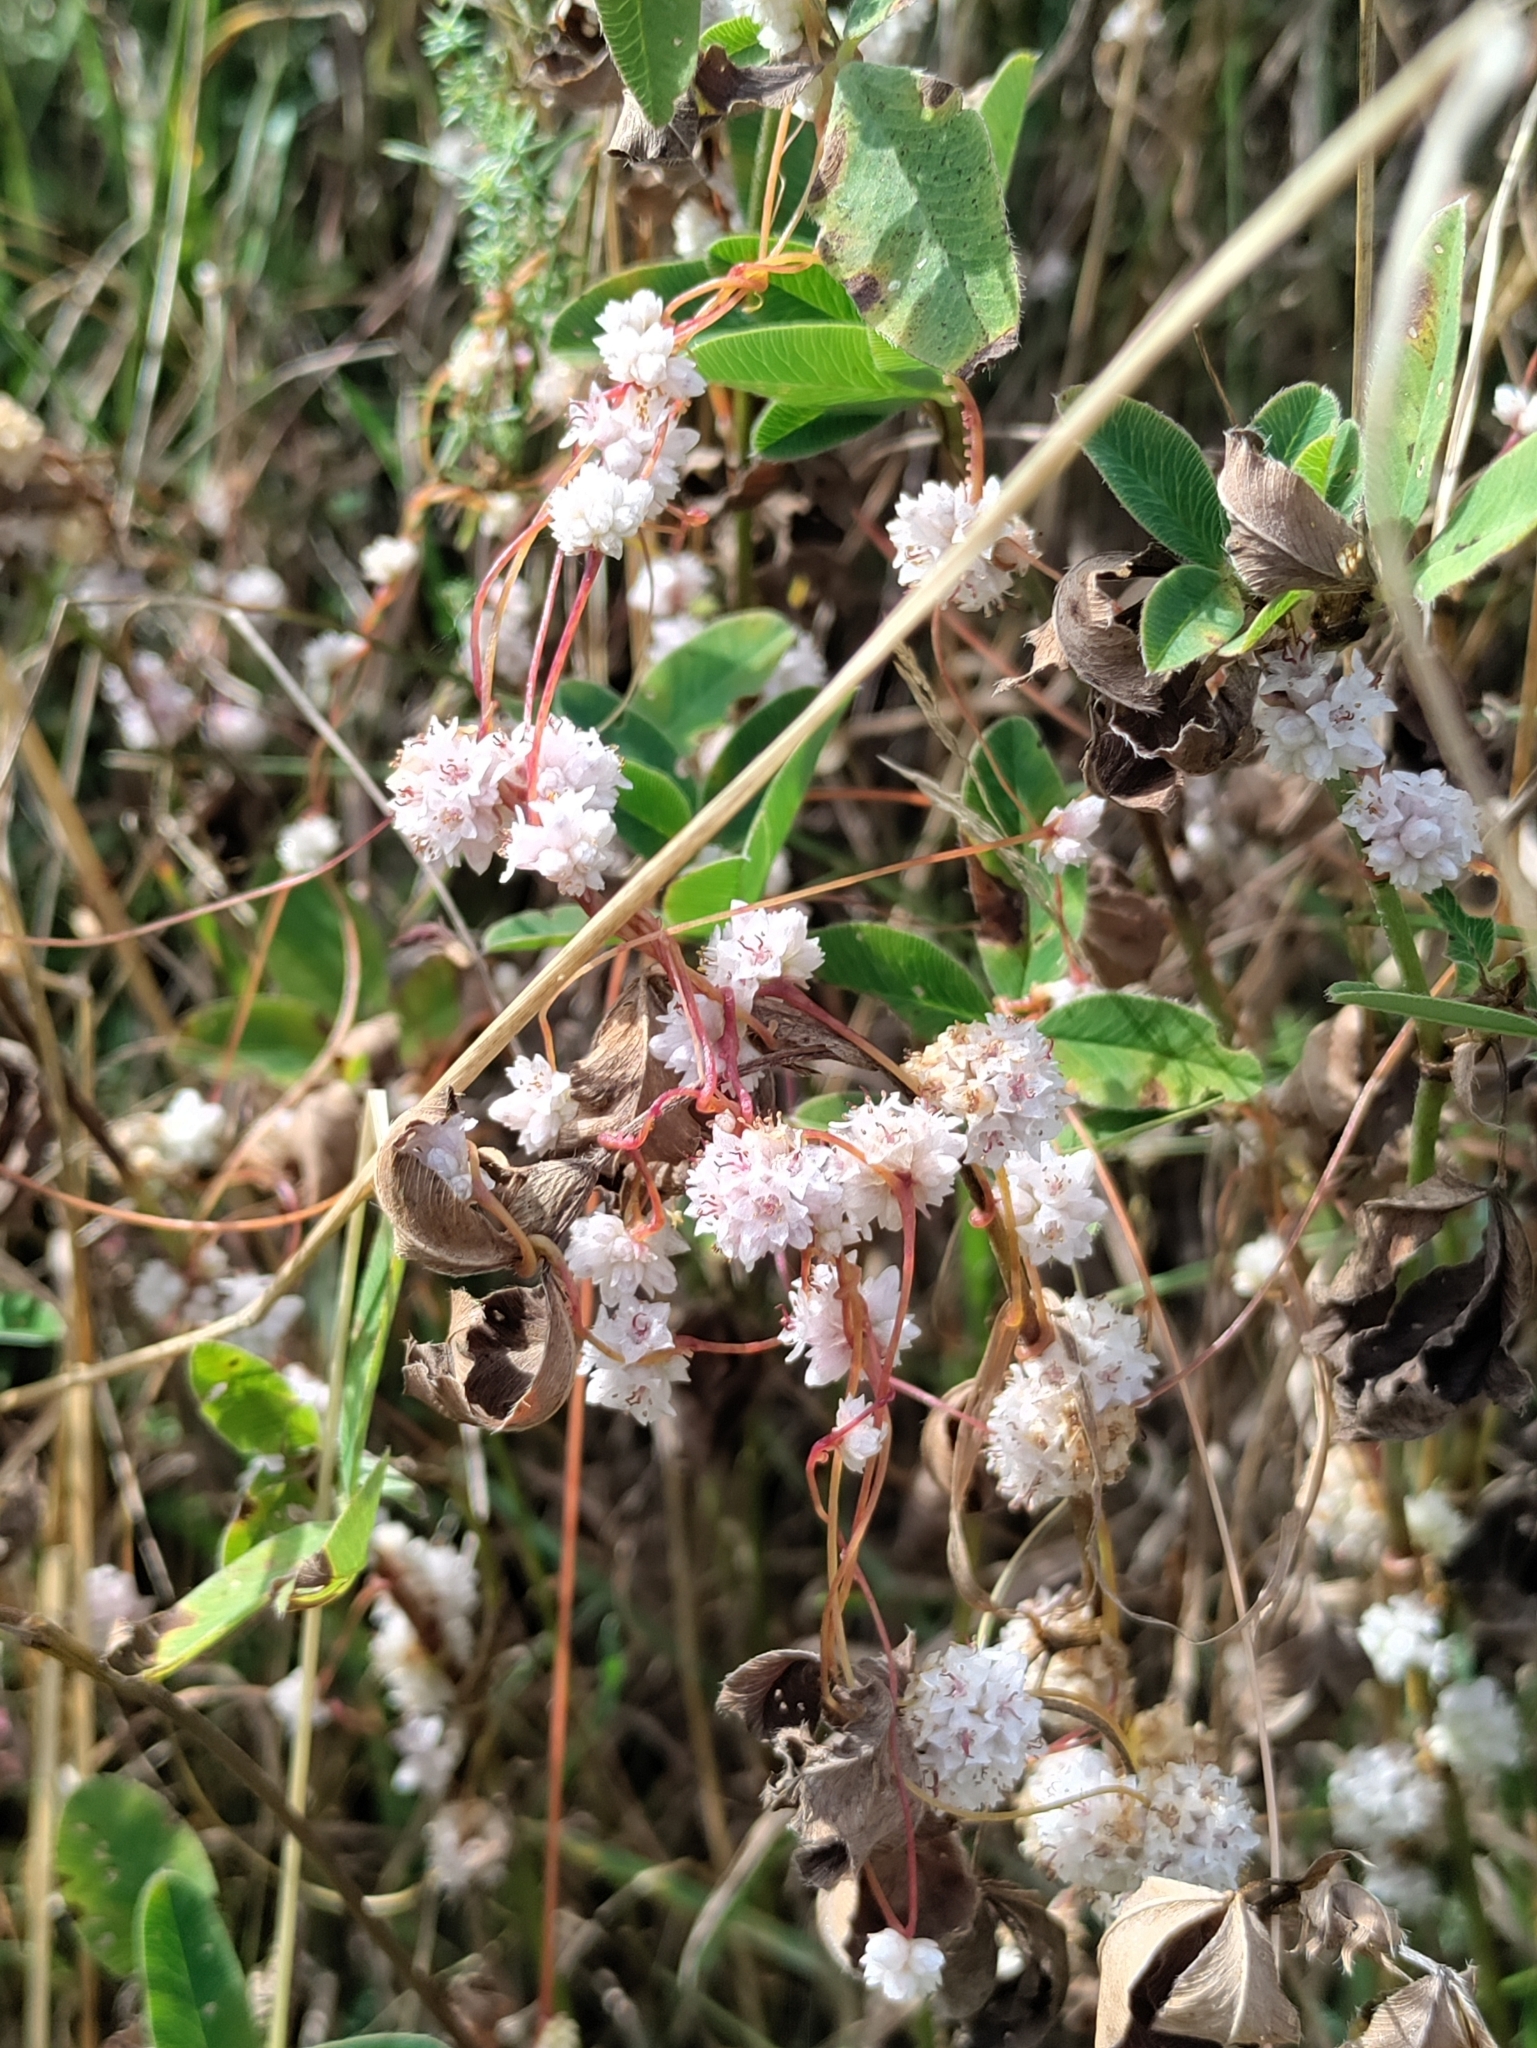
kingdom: Plantae
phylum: Tracheophyta
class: Magnoliopsida
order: Solanales
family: Convolvulaceae
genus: Cuscuta
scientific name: Cuscuta epithymum
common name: Clover dodder
